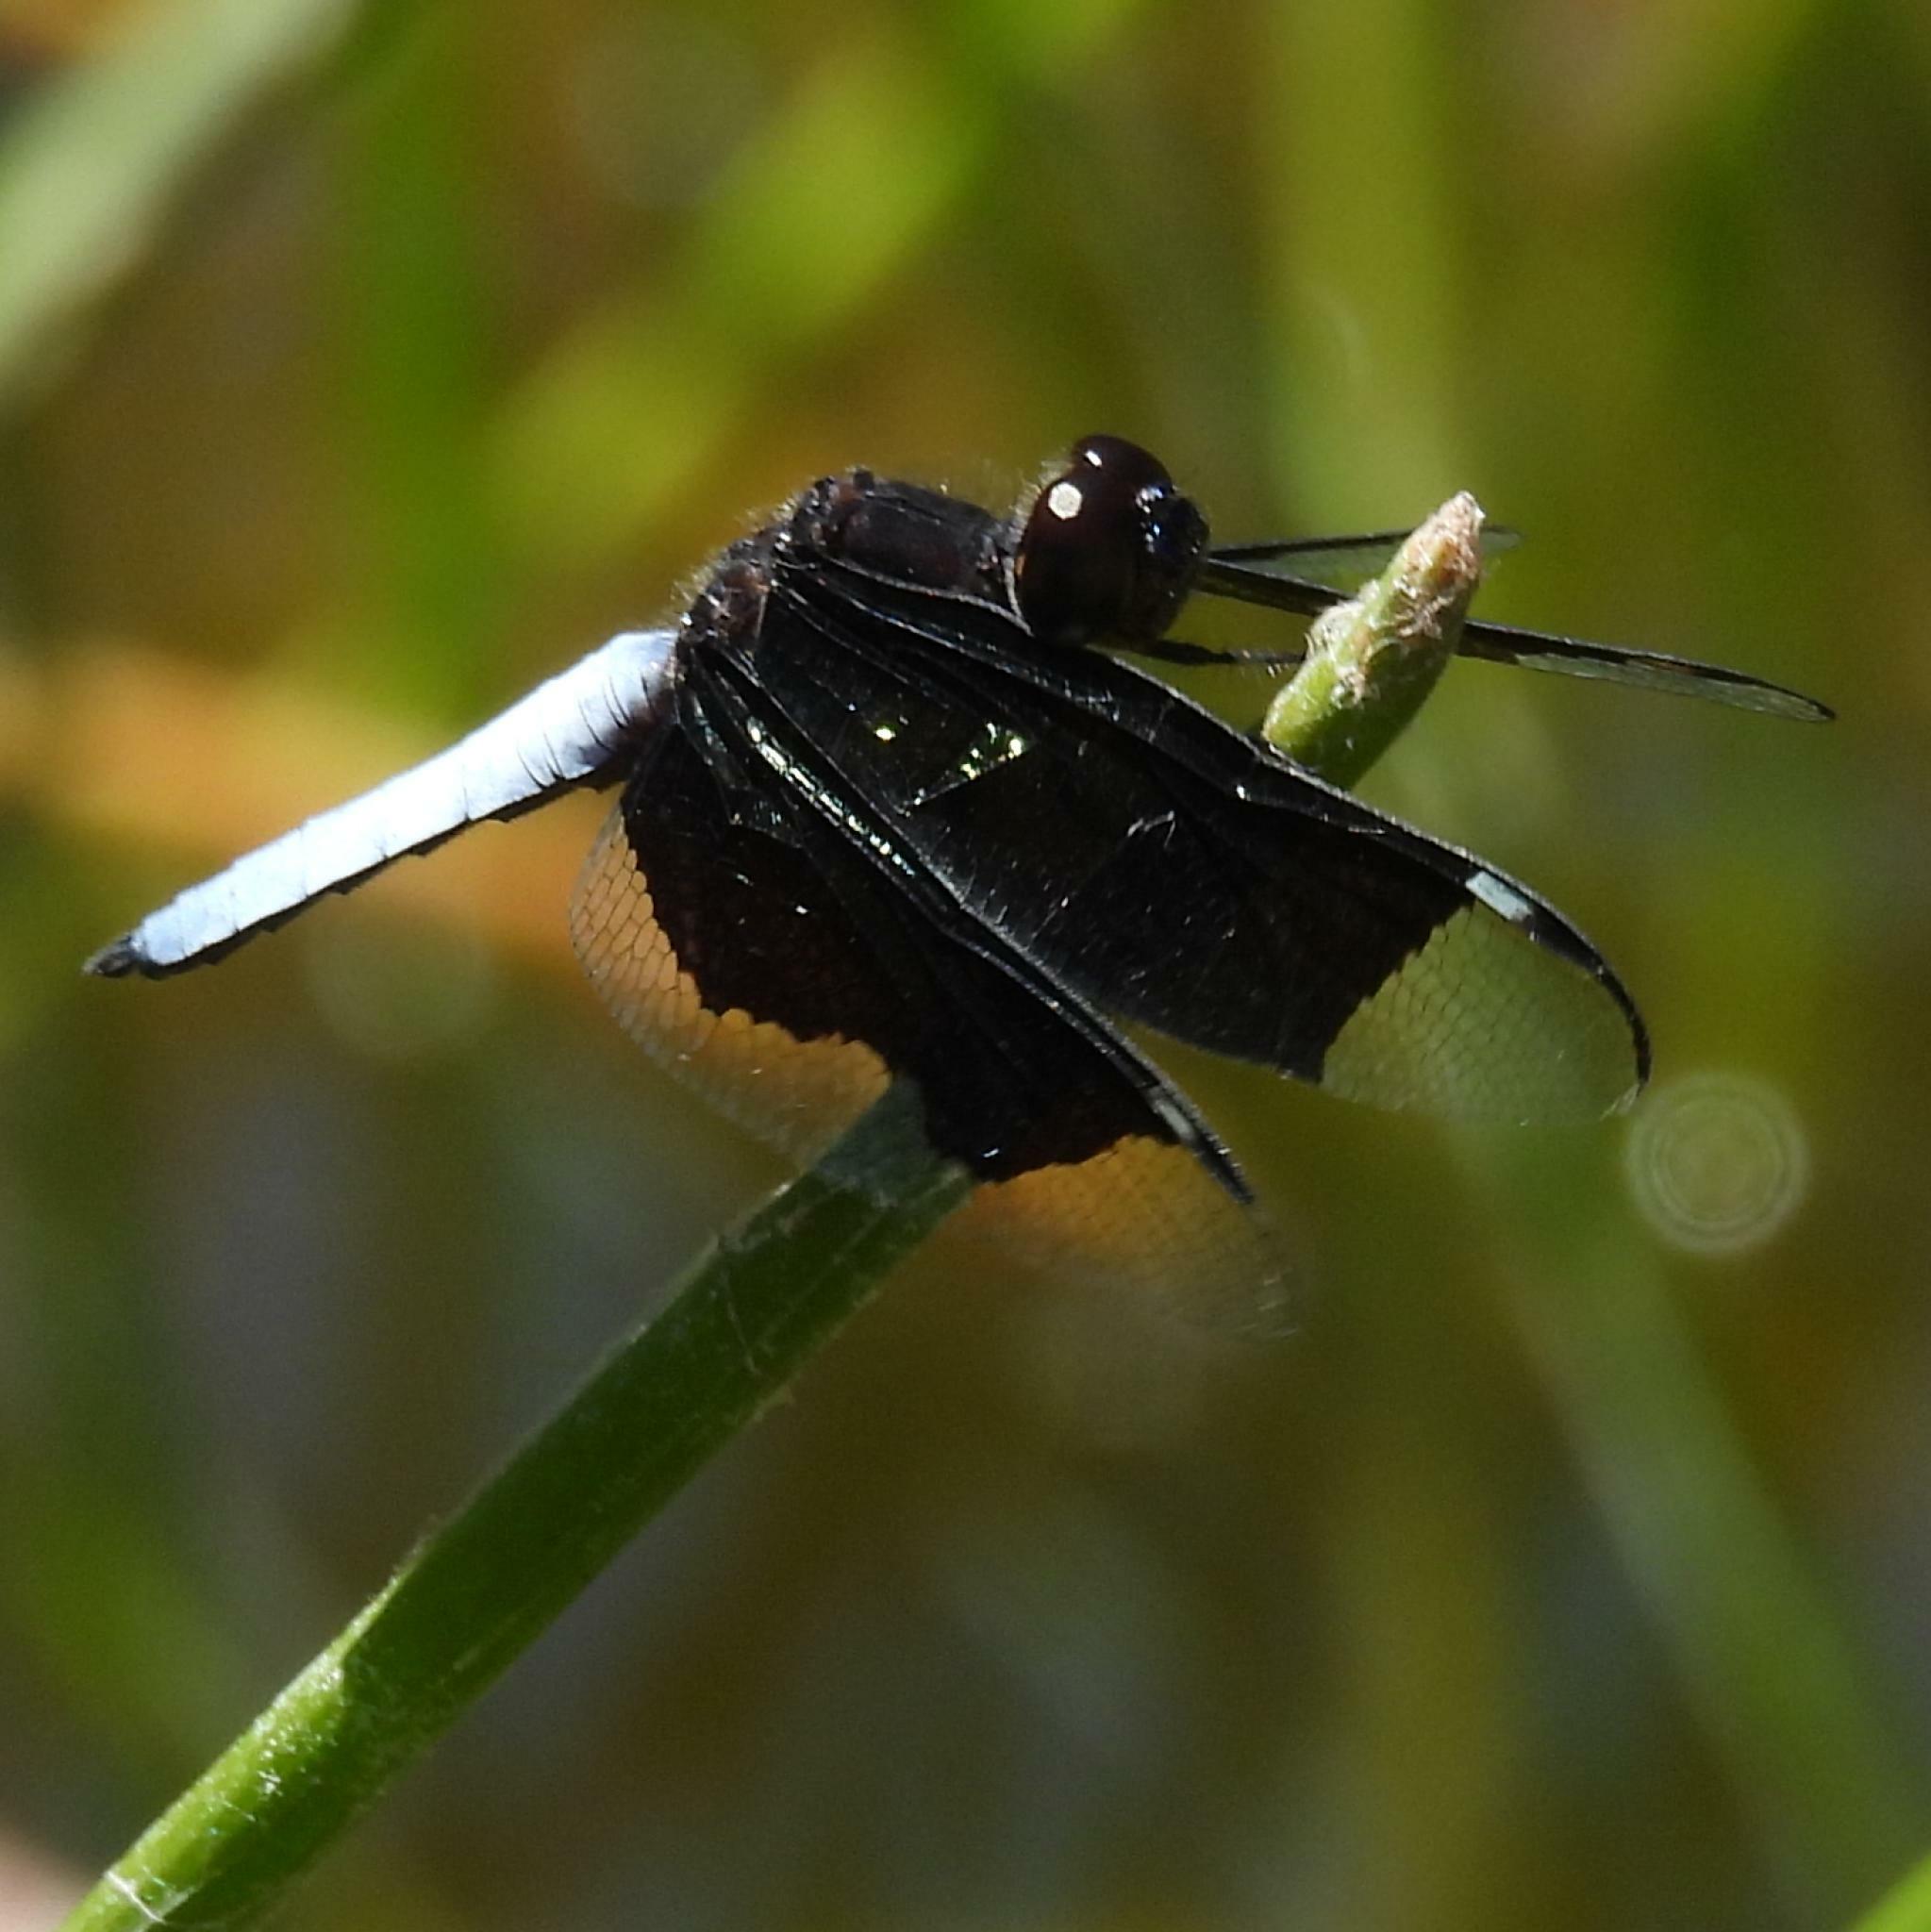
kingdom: Animalia
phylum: Arthropoda
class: Insecta
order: Odonata
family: Libellulidae
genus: Palpopleura
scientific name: Palpopleura lucia
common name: Lucia widow
